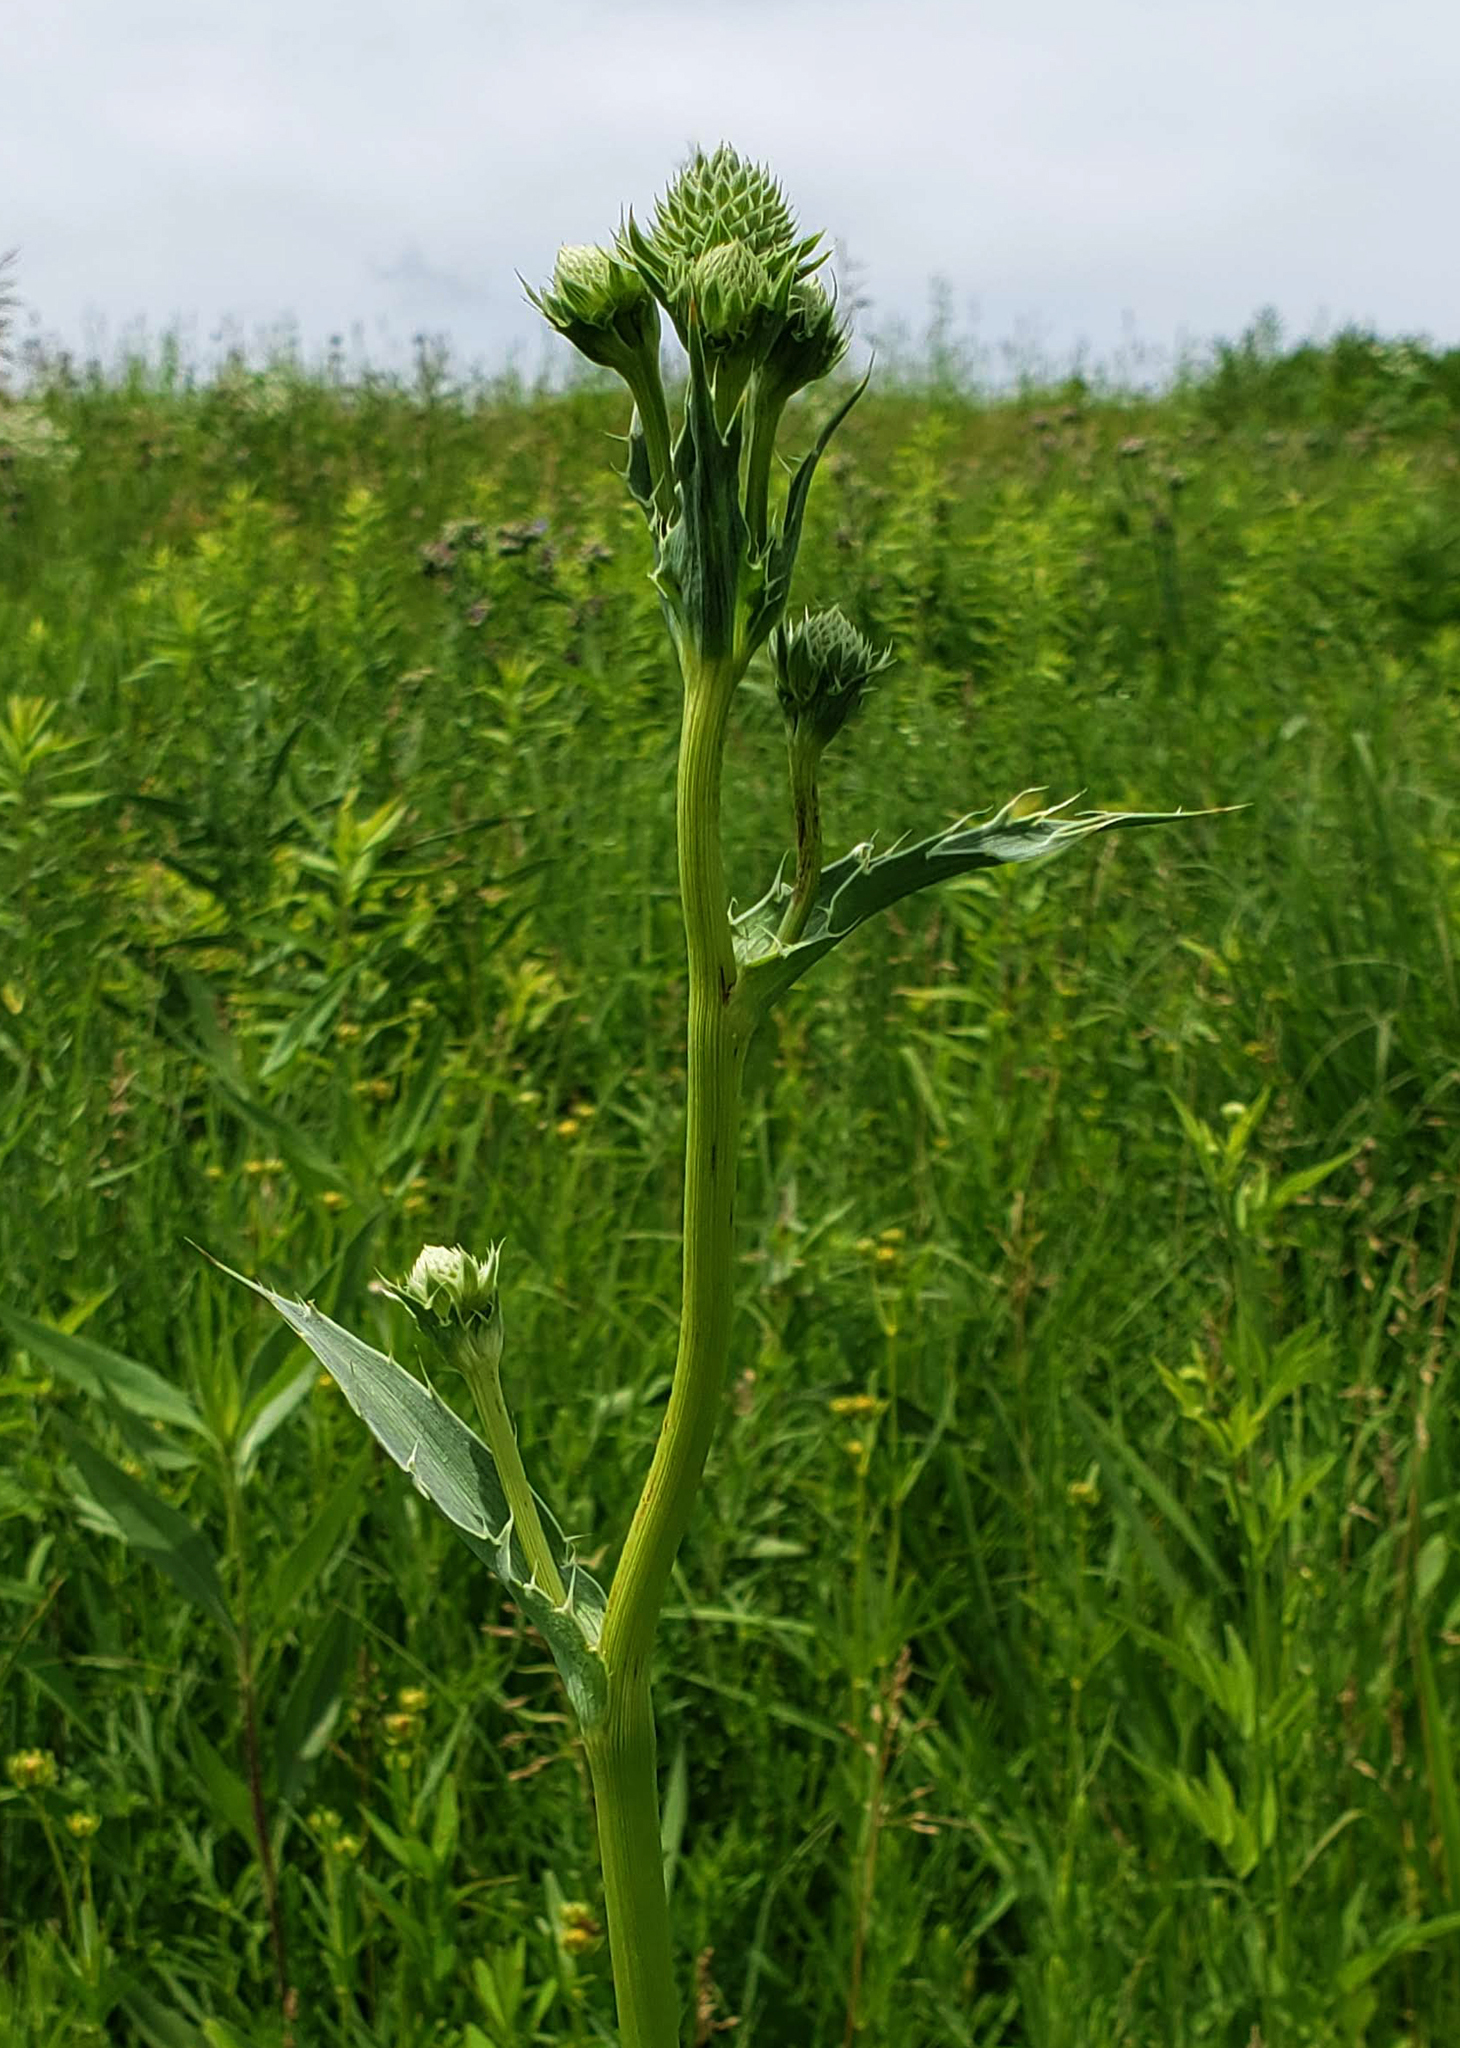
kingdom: Plantae
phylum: Tracheophyta
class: Magnoliopsida
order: Apiales
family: Apiaceae
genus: Eryngium
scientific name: Eryngium yuccifolium
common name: Button eryngo
